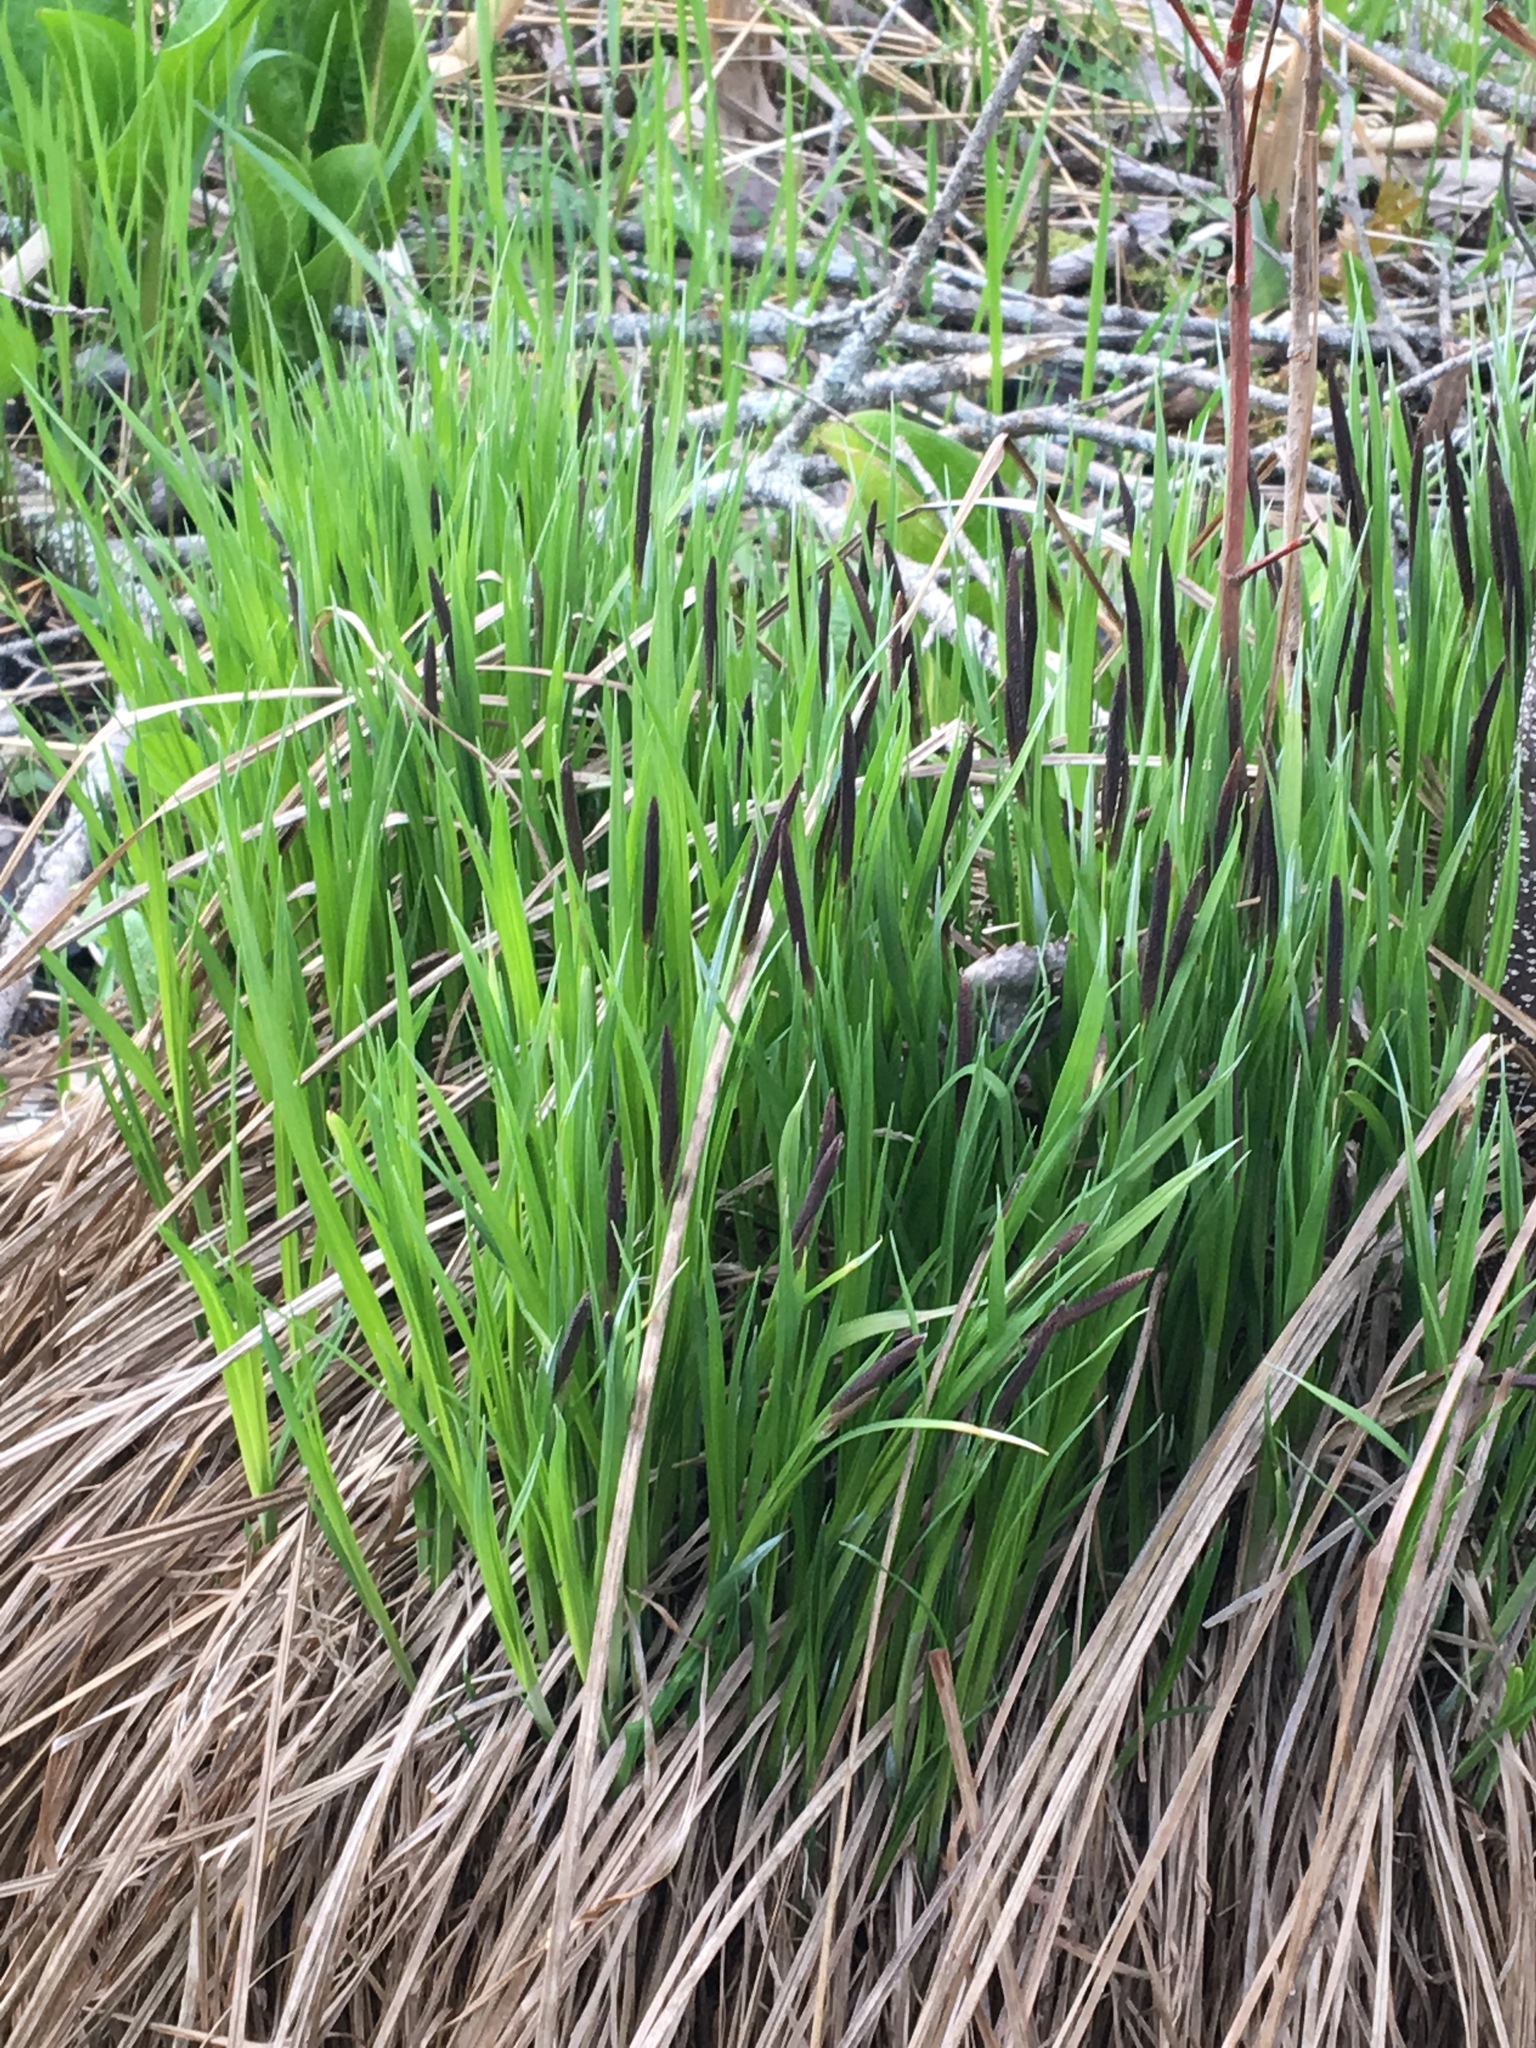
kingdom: Plantae
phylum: Tracheophyta
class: Liliopsida
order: Poales
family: Cyperaceae
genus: Carex
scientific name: Carex stricta
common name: Hummock sedge
